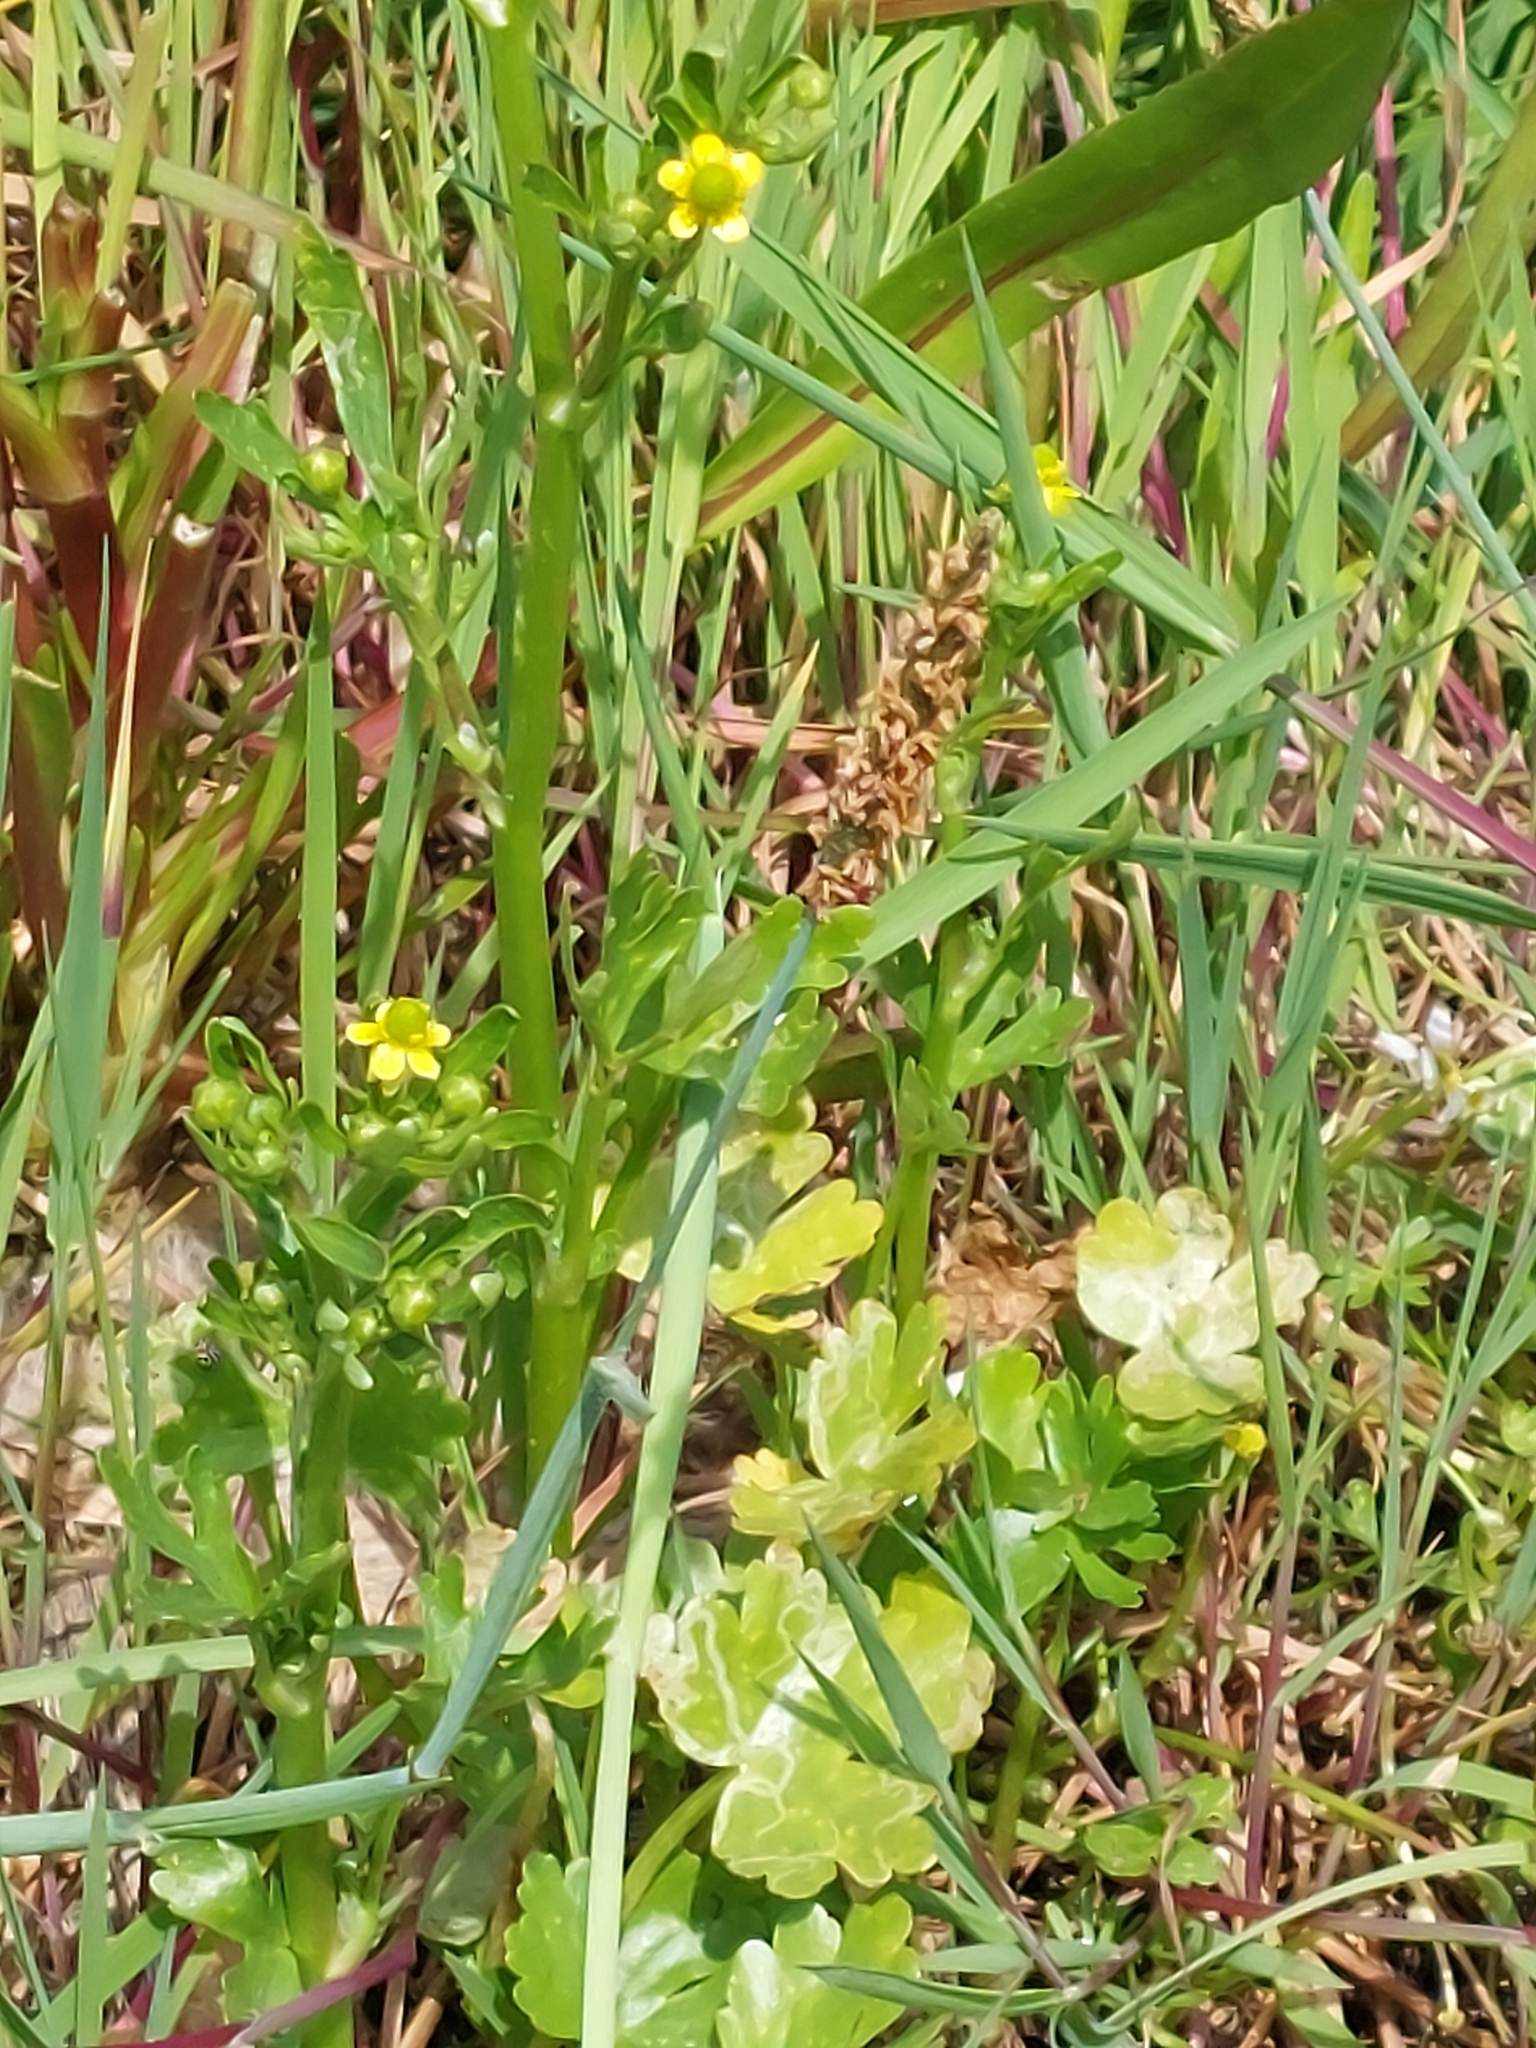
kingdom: Plantae
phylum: Tracheophyta
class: Magnoliopsida
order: Ranunculales
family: Ranunculaceae
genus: Ranunculus
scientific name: Ranunculus sceleratus
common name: Celery-leaved buttercup
